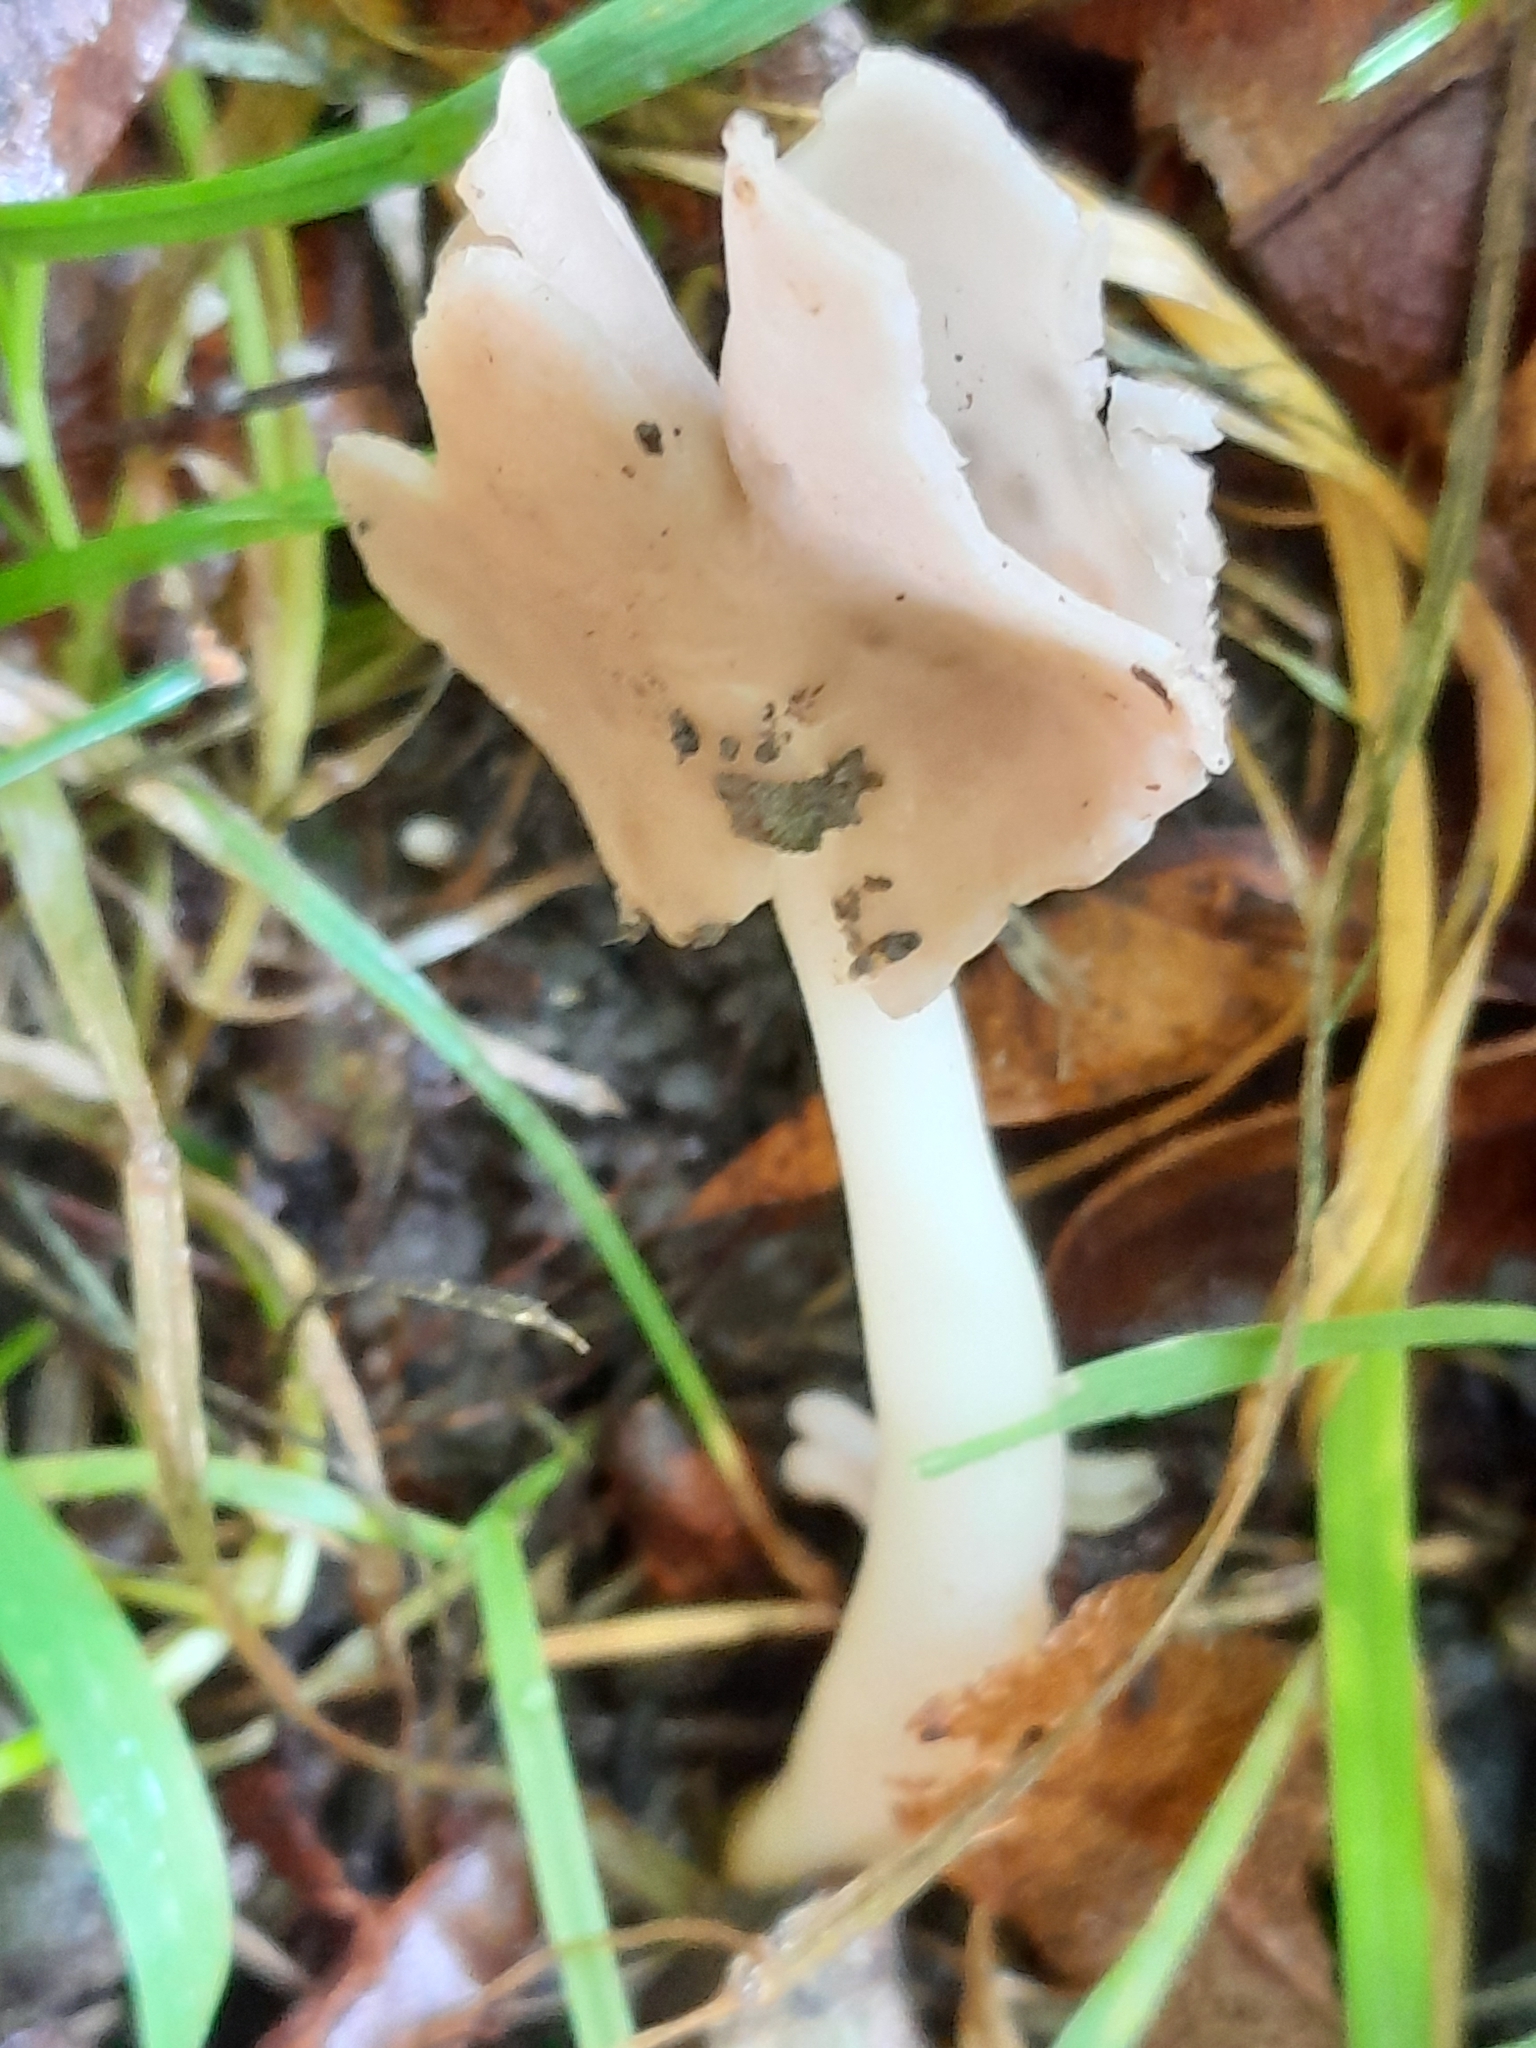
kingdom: Fungi
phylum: Ascomycota
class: Pezizomycetes
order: Pezizales
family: Helvellaceae
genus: Helvella
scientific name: Helvella elastica
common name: Elastic saddle
